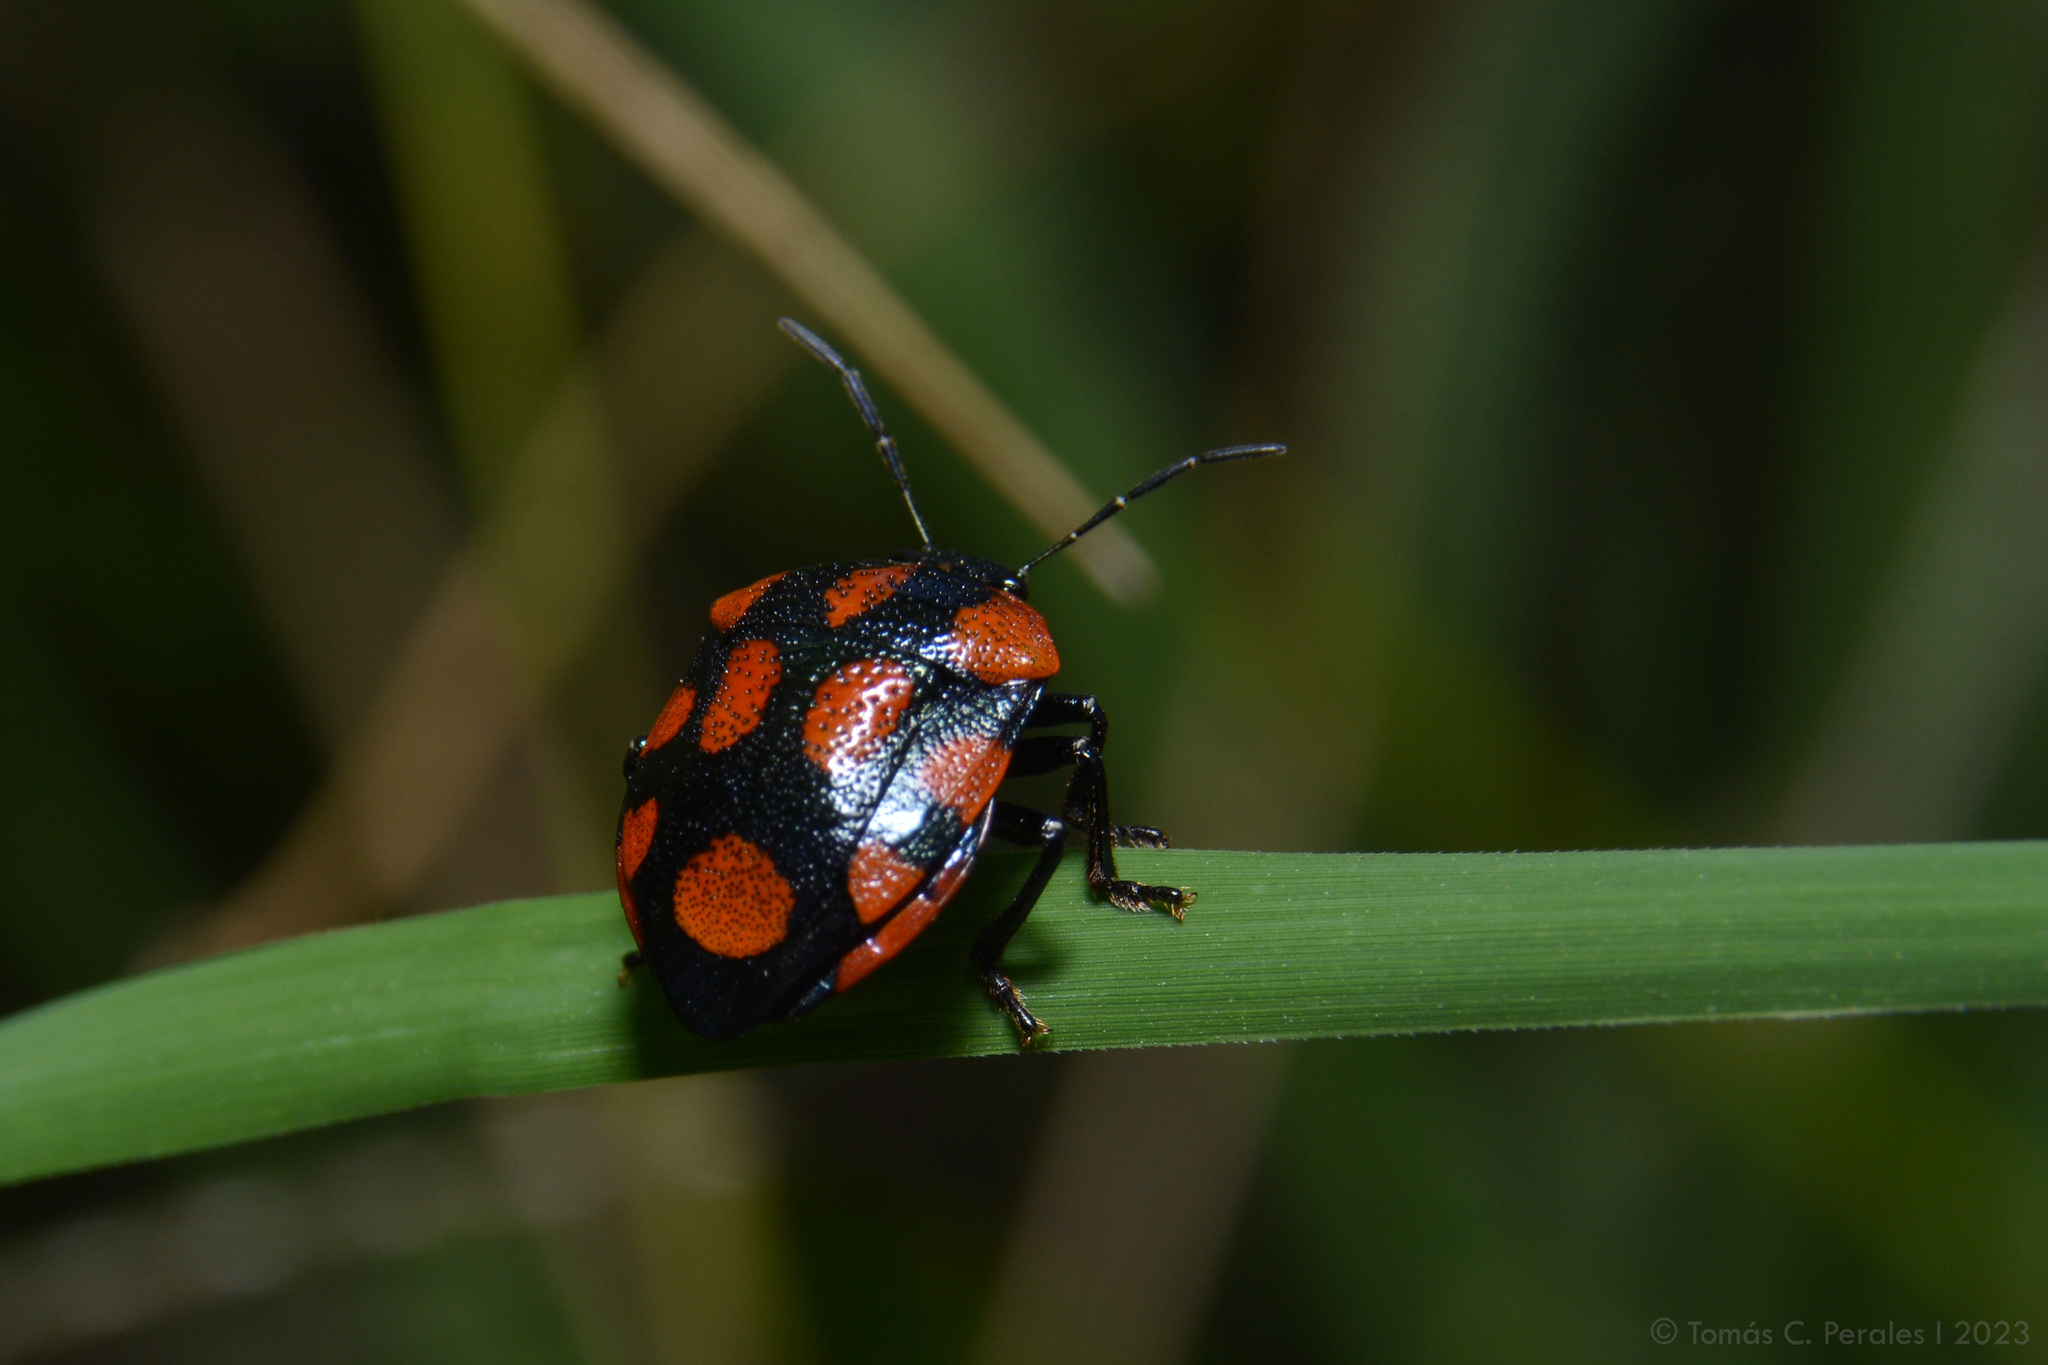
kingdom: Animalia
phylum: Arthropoda
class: Insecta
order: Hemiptera
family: Pentatomidae
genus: Stiretrus
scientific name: Stiretrus
